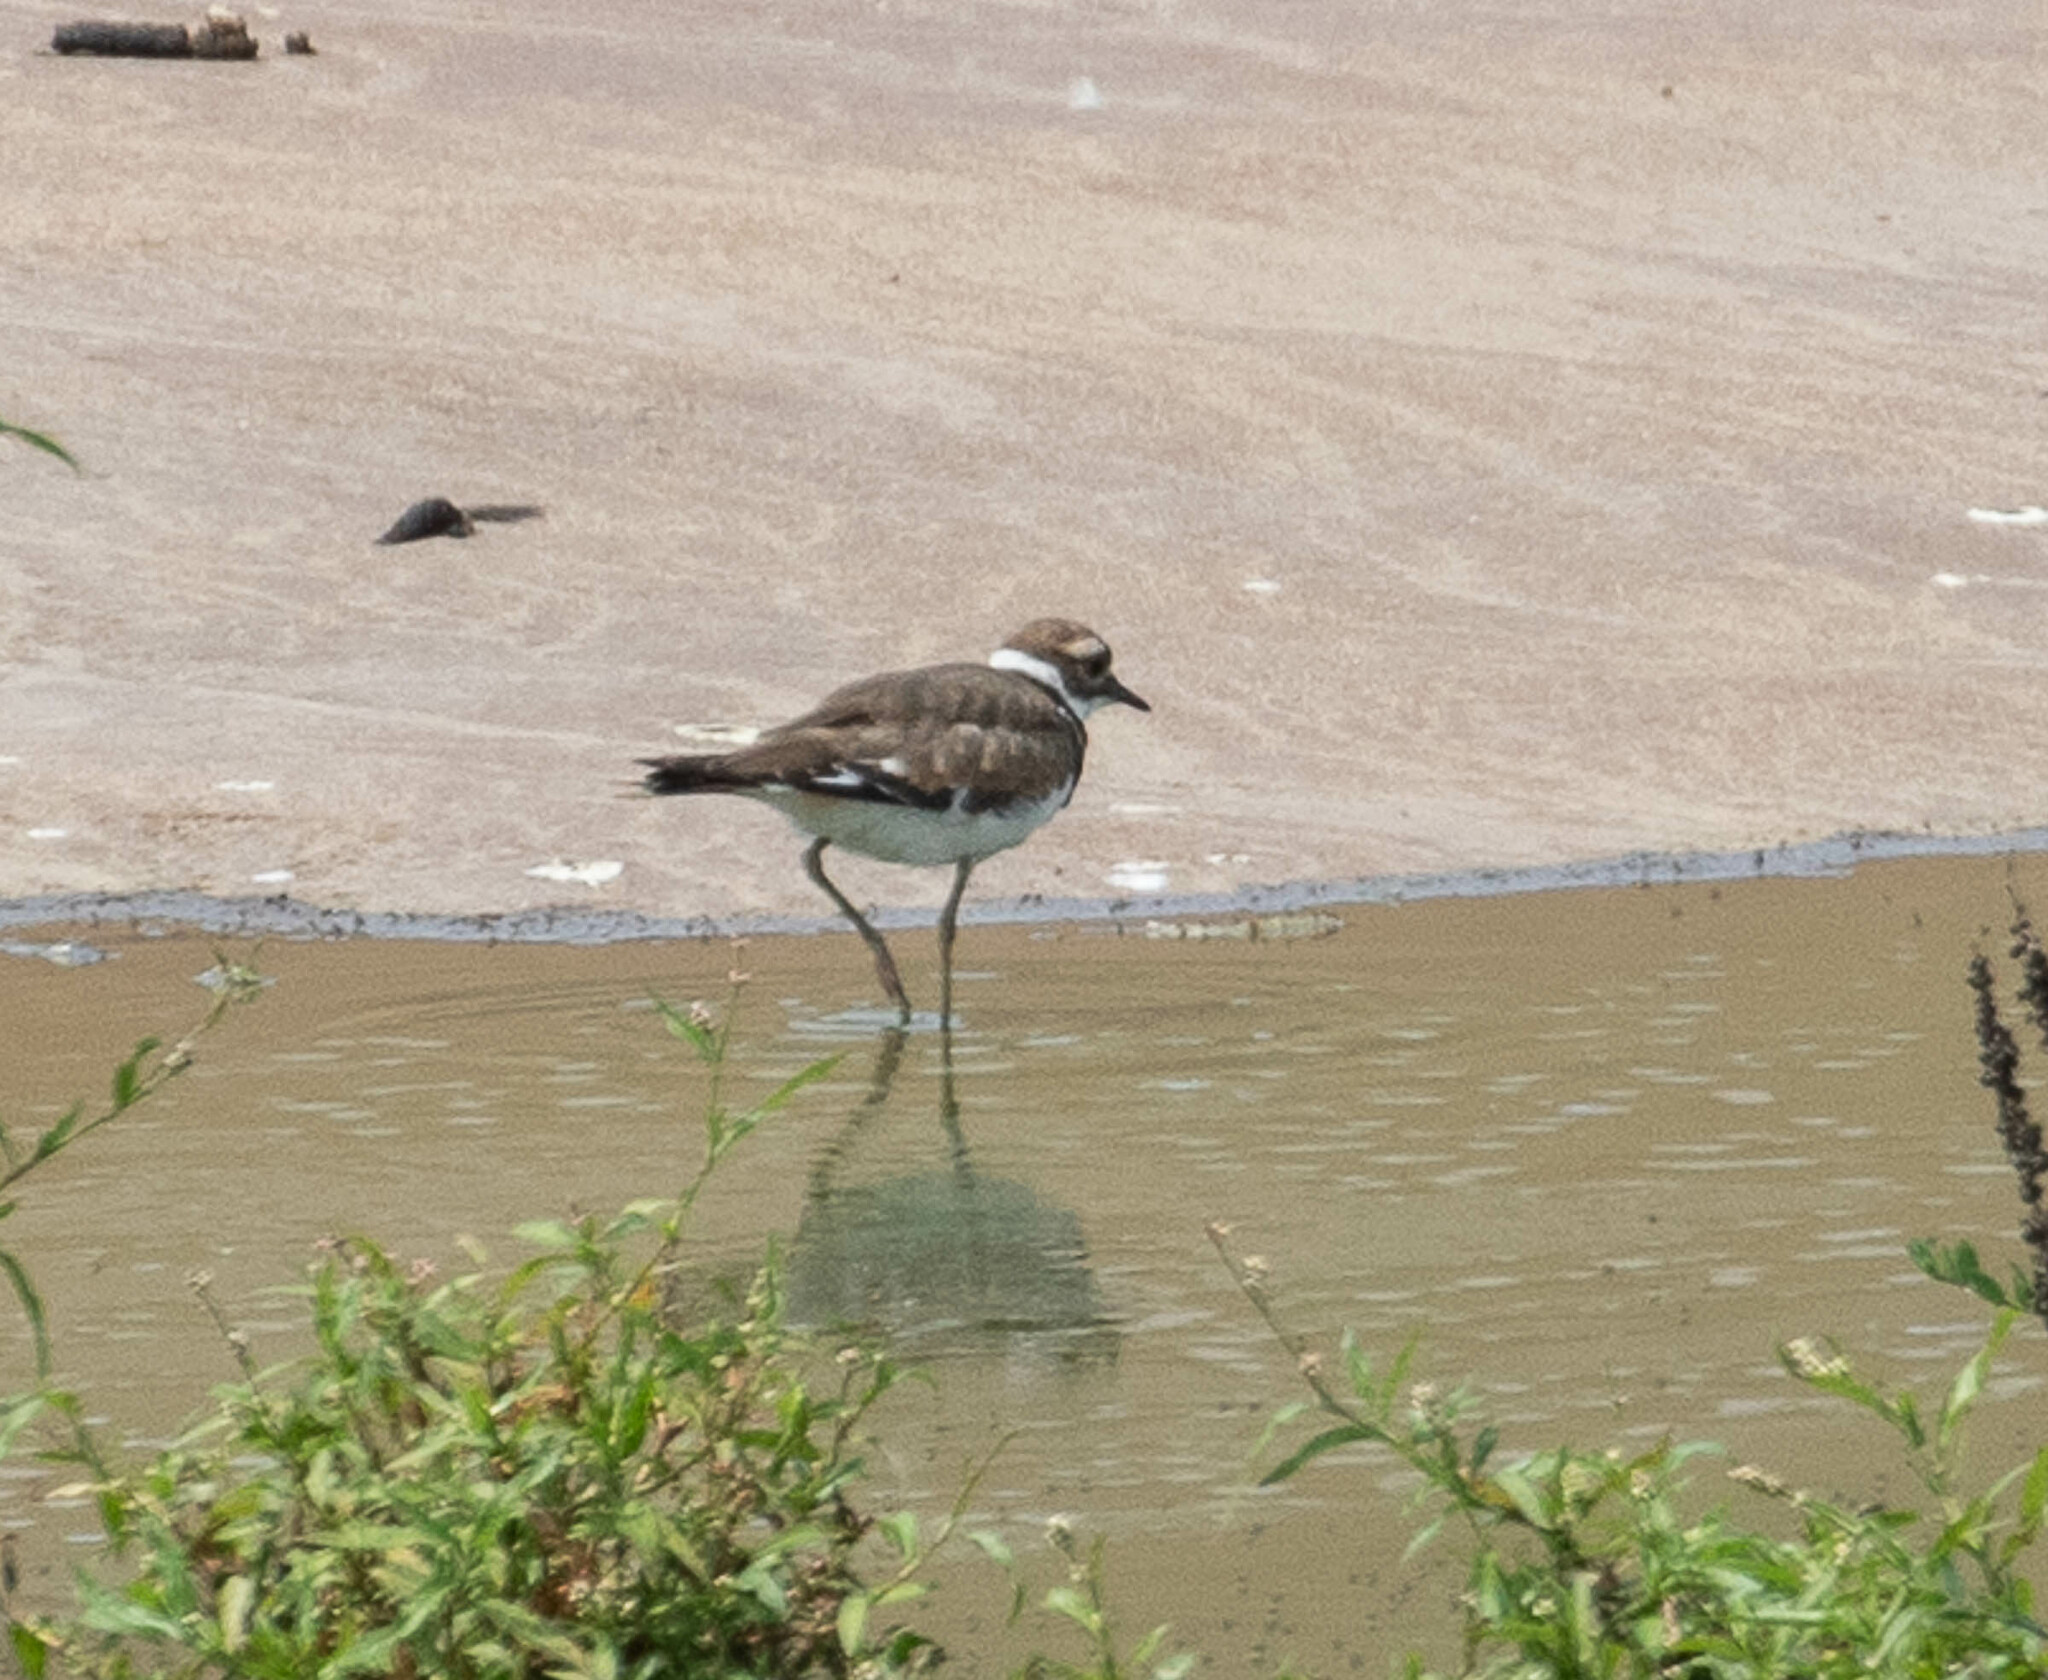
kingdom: Animalia
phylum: Chordata
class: Aves
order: Charadriiformes
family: Charadriidae
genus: Charadrius
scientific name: Charadrius vociferus
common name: Killdeer
